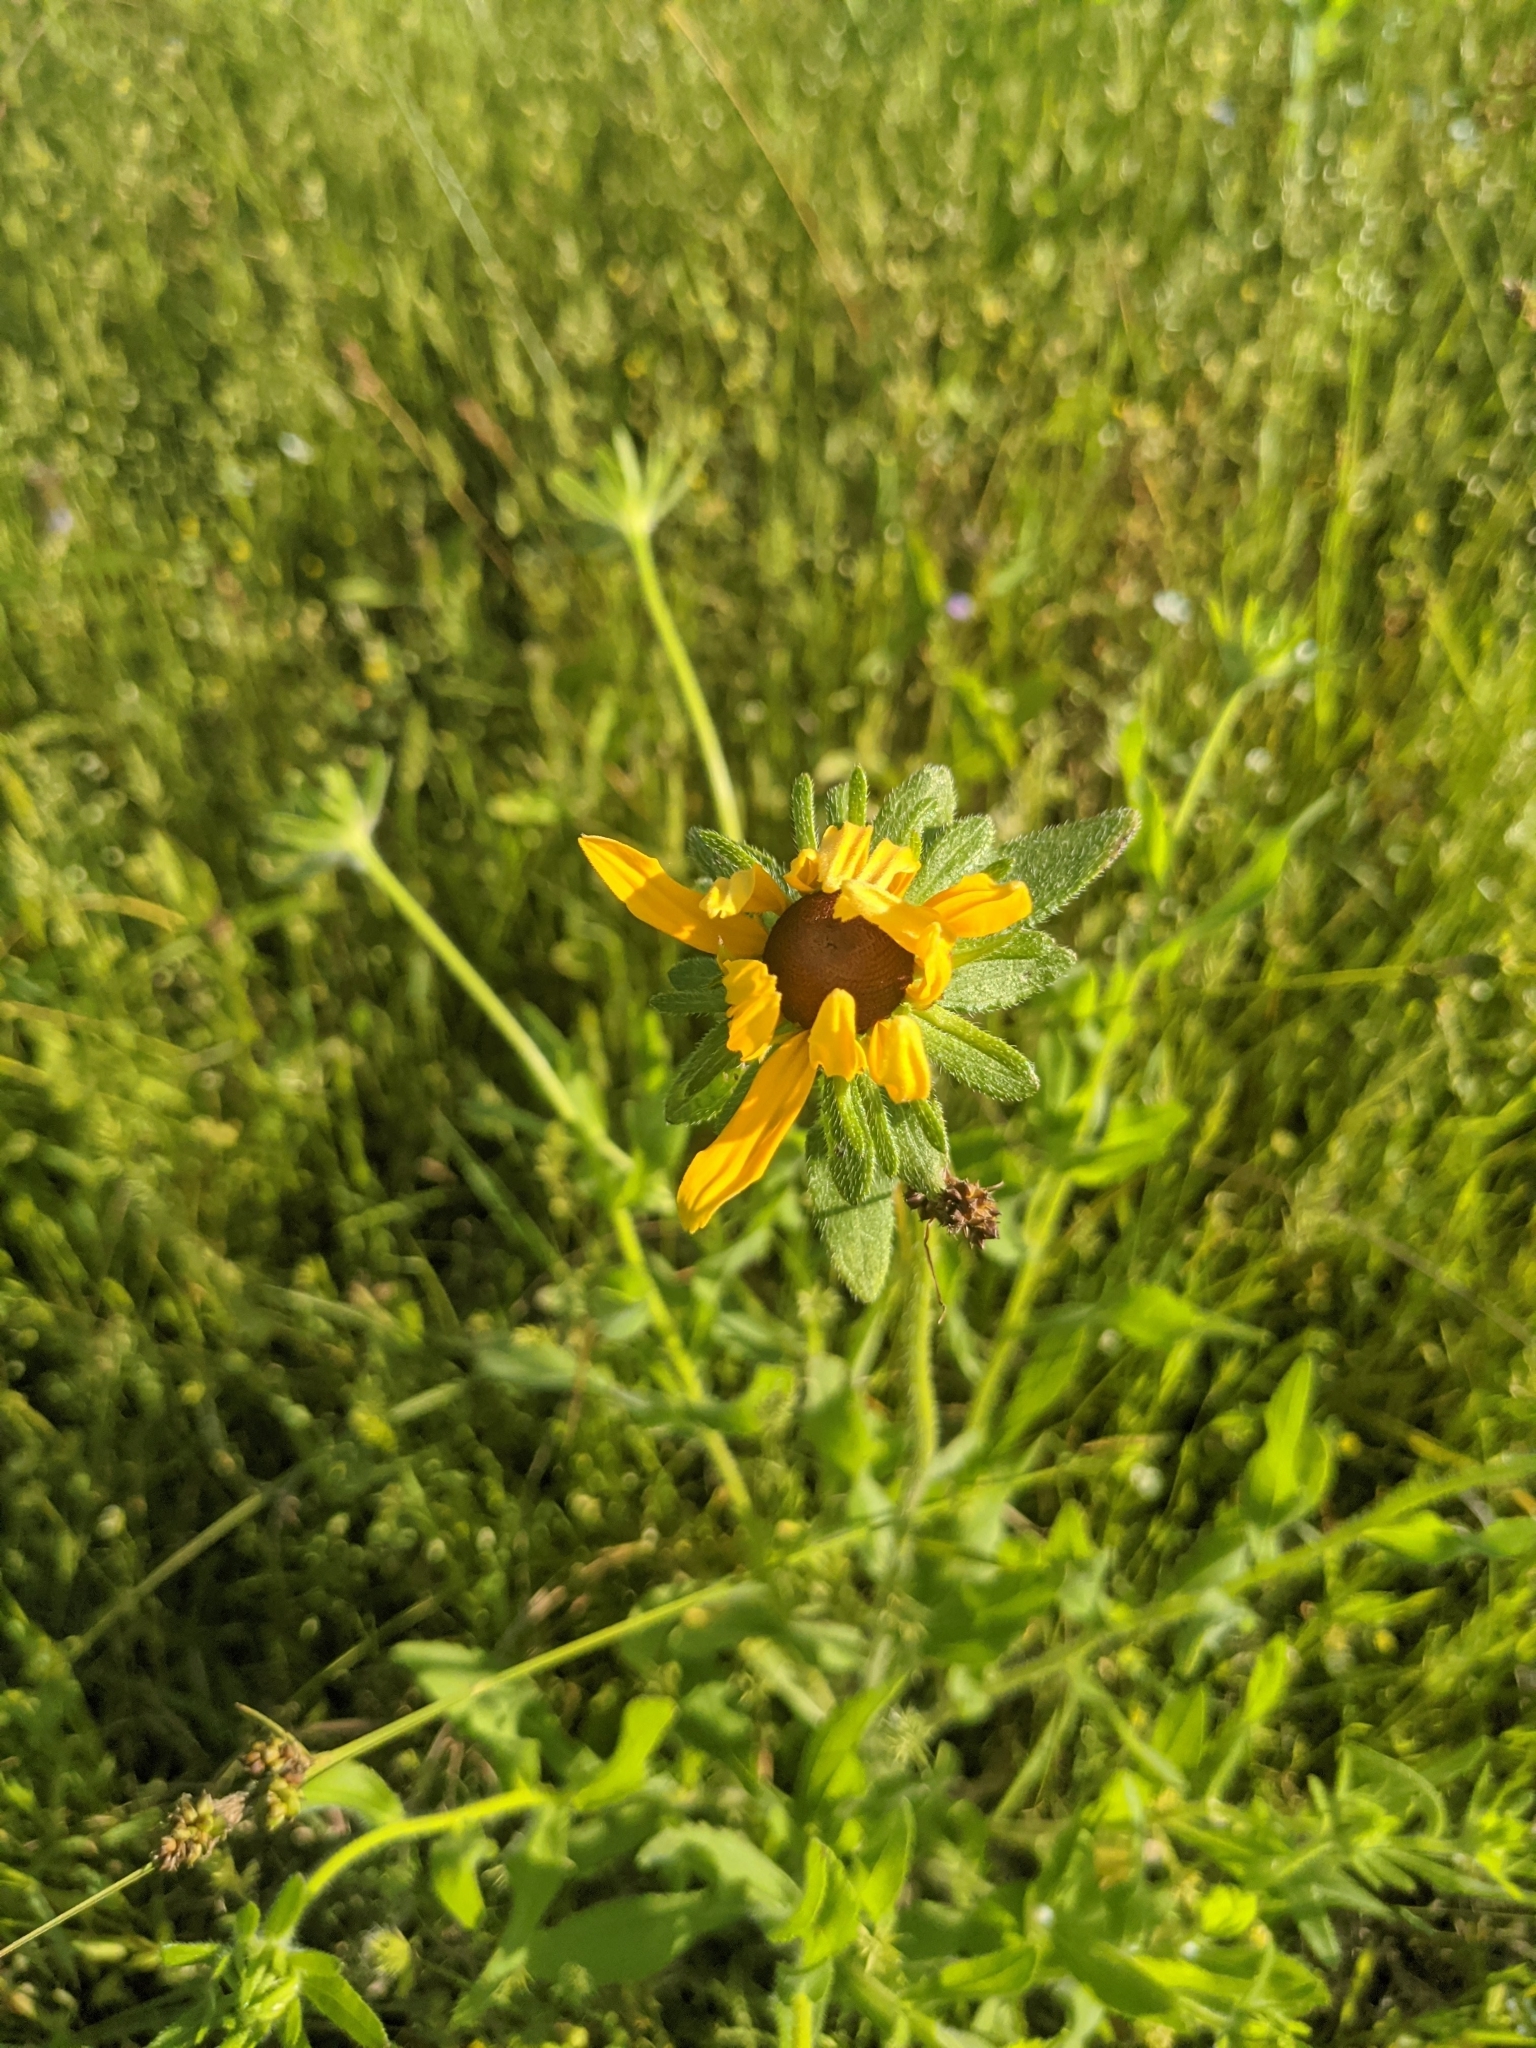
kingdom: Plantae
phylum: Tracheophyta
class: Magnoliopsida
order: Asterales
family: Asteraceae
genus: Rudbeckia
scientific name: Rudbeckia hirta
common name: Black-eyed-susan
